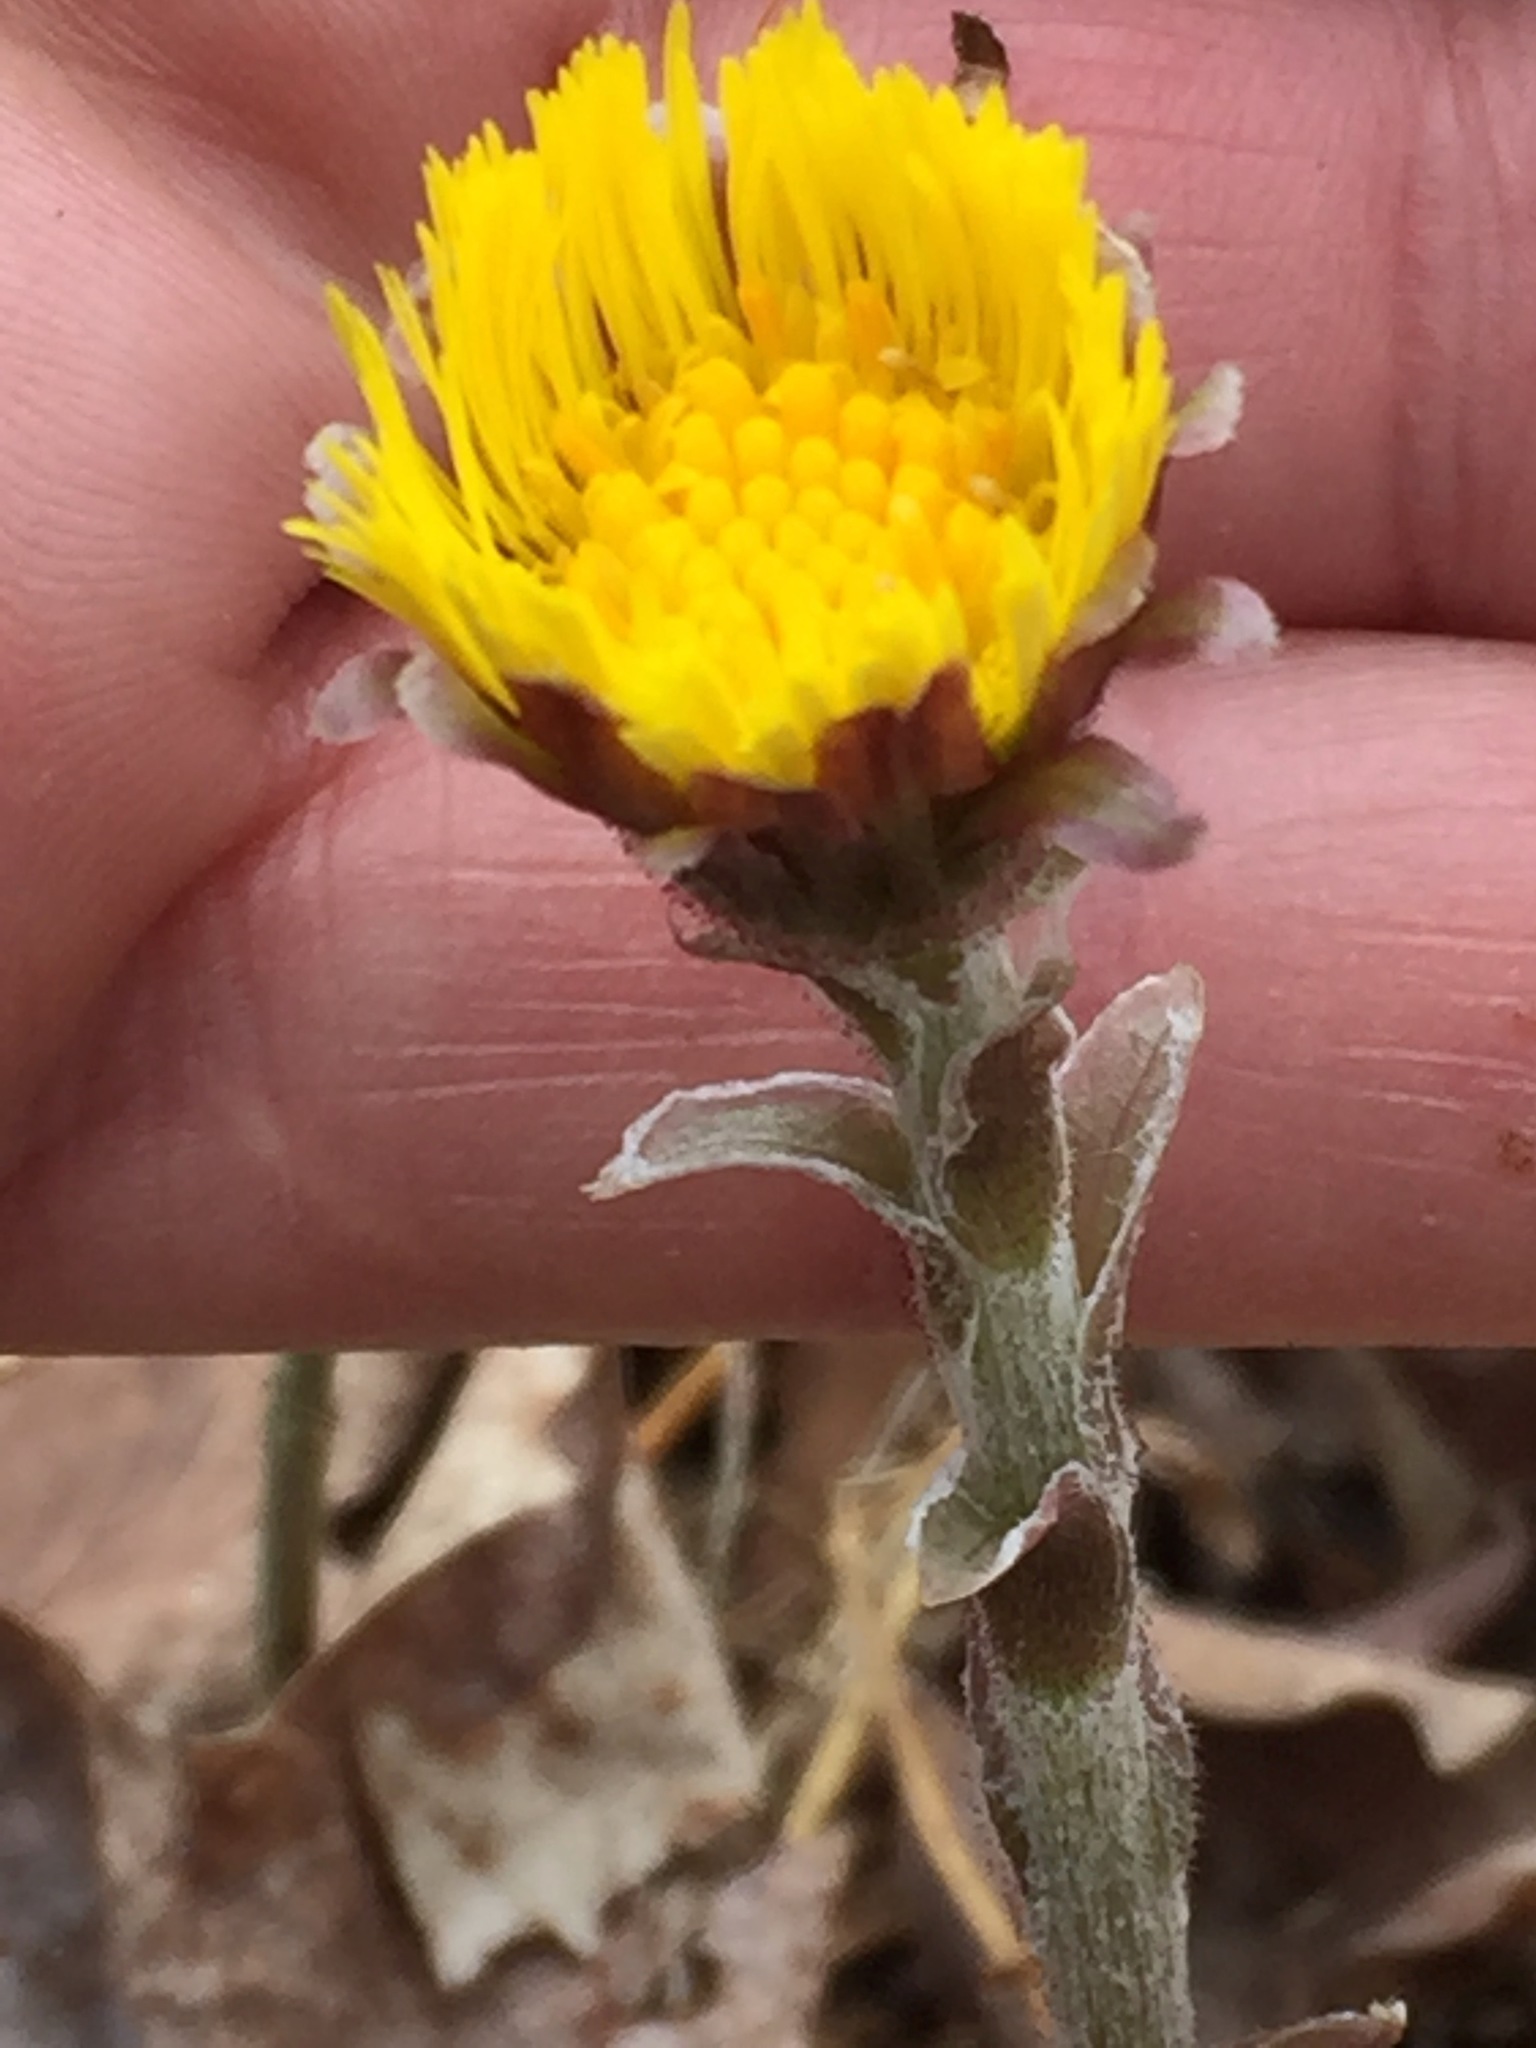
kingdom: Plantae
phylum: Tracheophyta
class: Magnoliopsida
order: Asterales
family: Asteraceae
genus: Tussilago
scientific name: Tussilago farfara
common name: Coltsfoot
